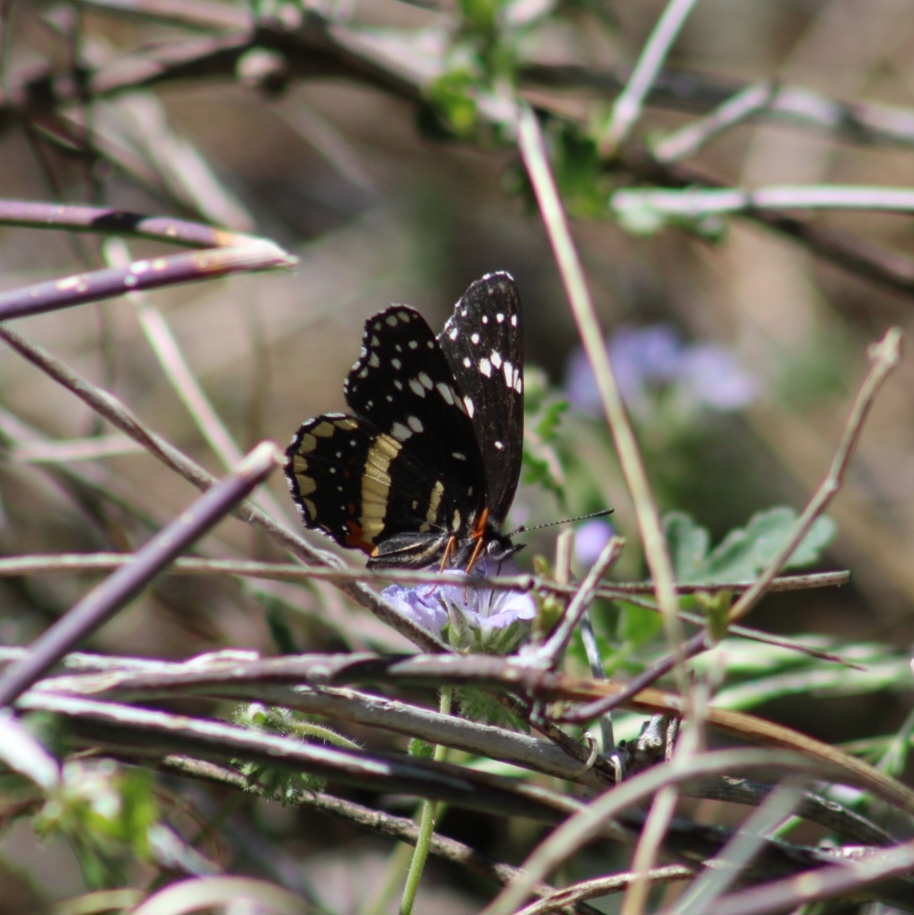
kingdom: Animalia
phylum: Arthropoda
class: Insecta
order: Lepidoptera
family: Nymphalidae
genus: Chlosyne
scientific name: Chlosyne lacinia
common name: Bordered patch
